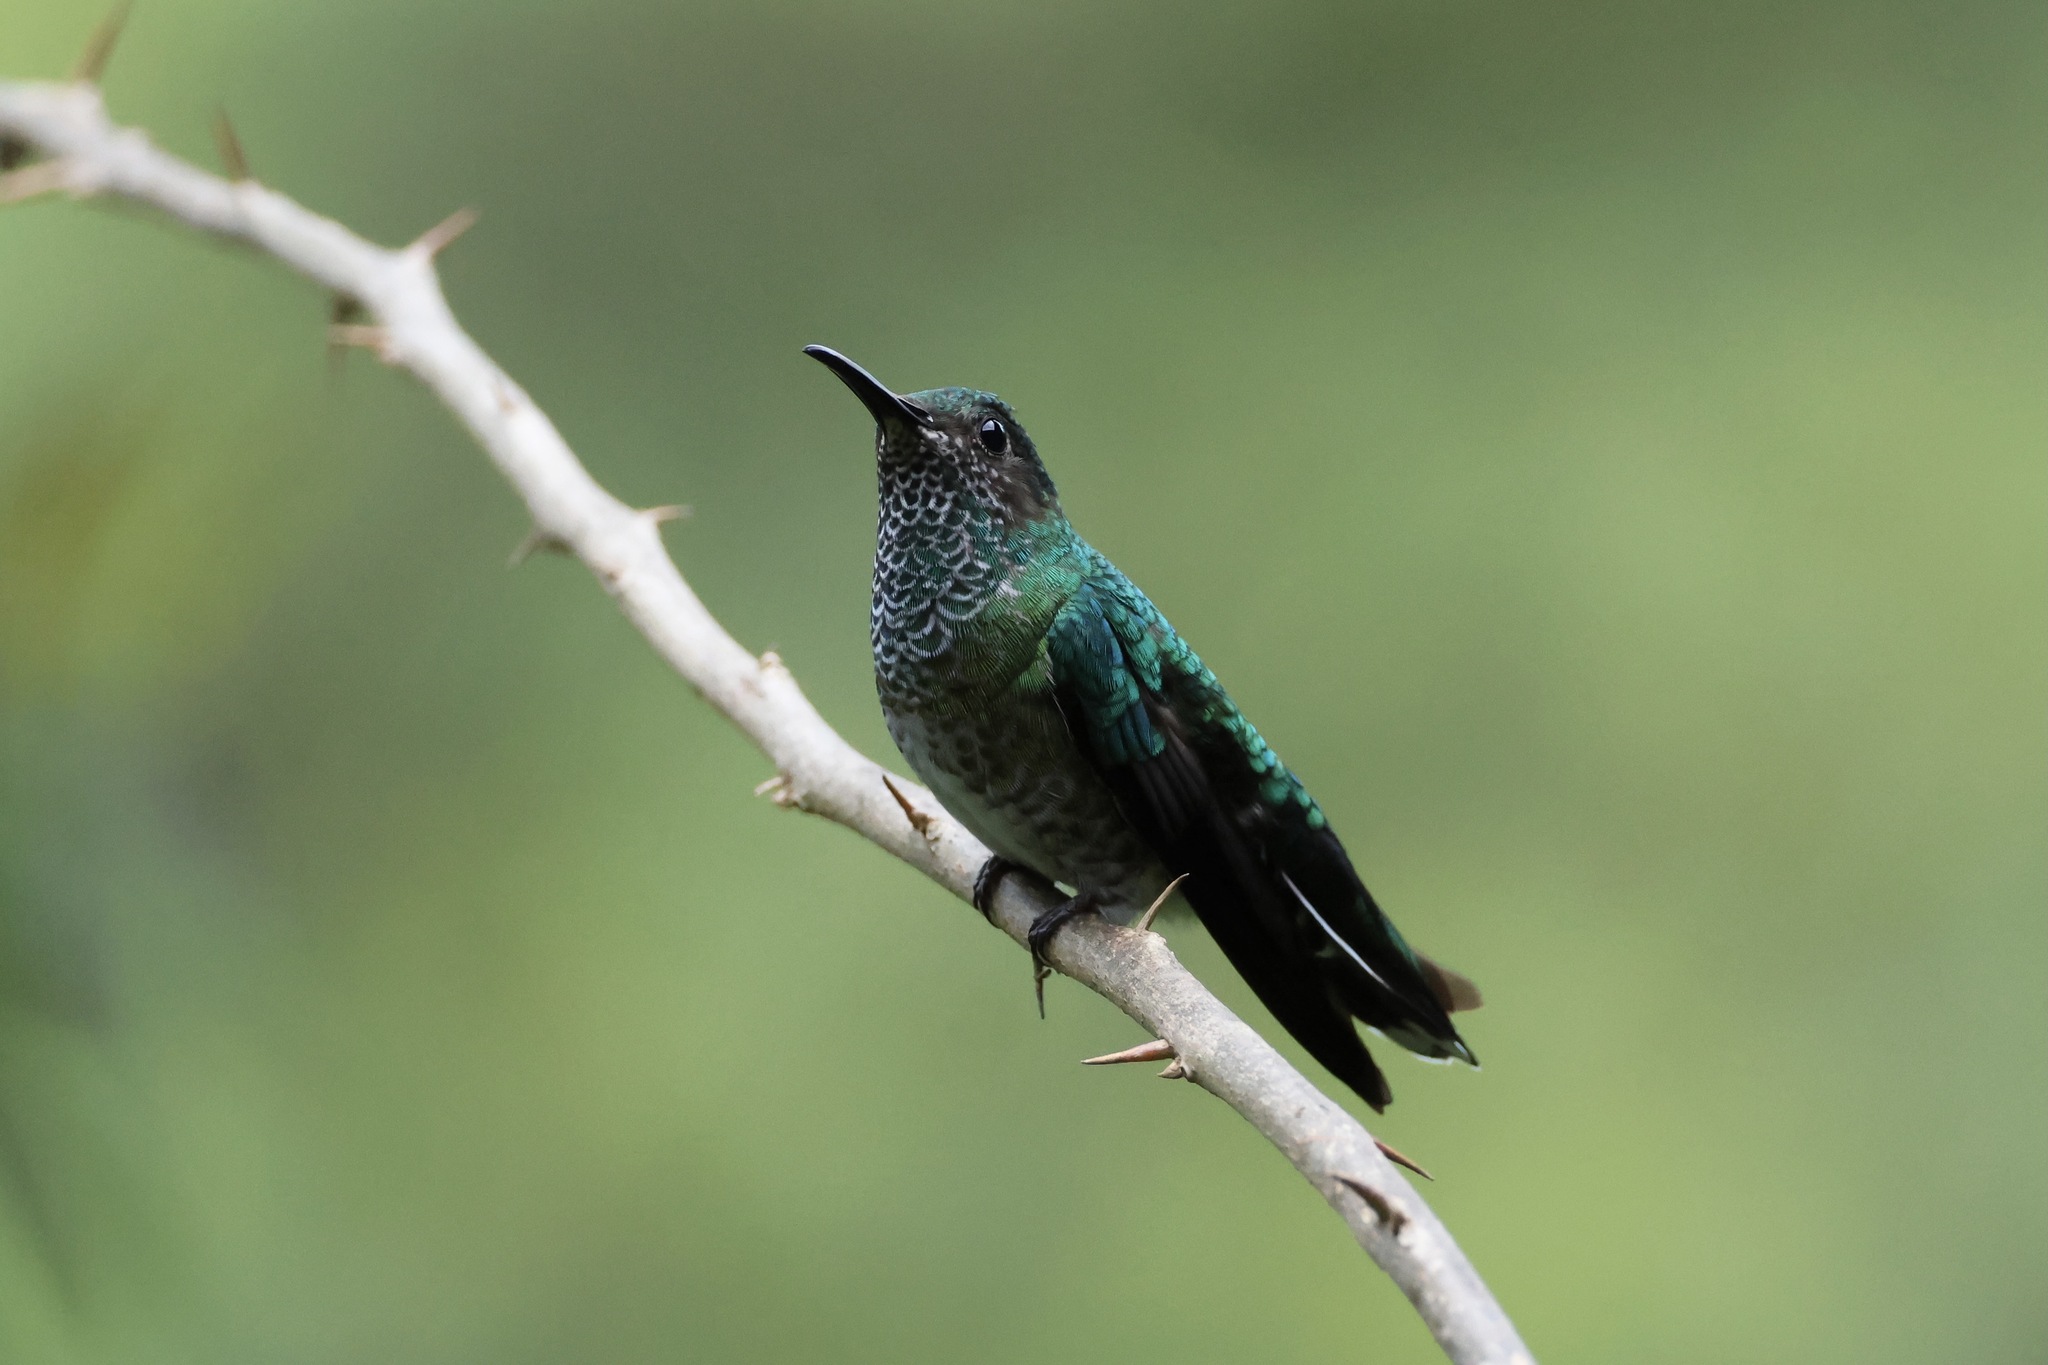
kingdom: Animalia
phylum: Chordata
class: Aves
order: Apodiformes
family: Trochilidae
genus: Florisuga
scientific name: Florisuga mellivora
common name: White-necked jacobin
